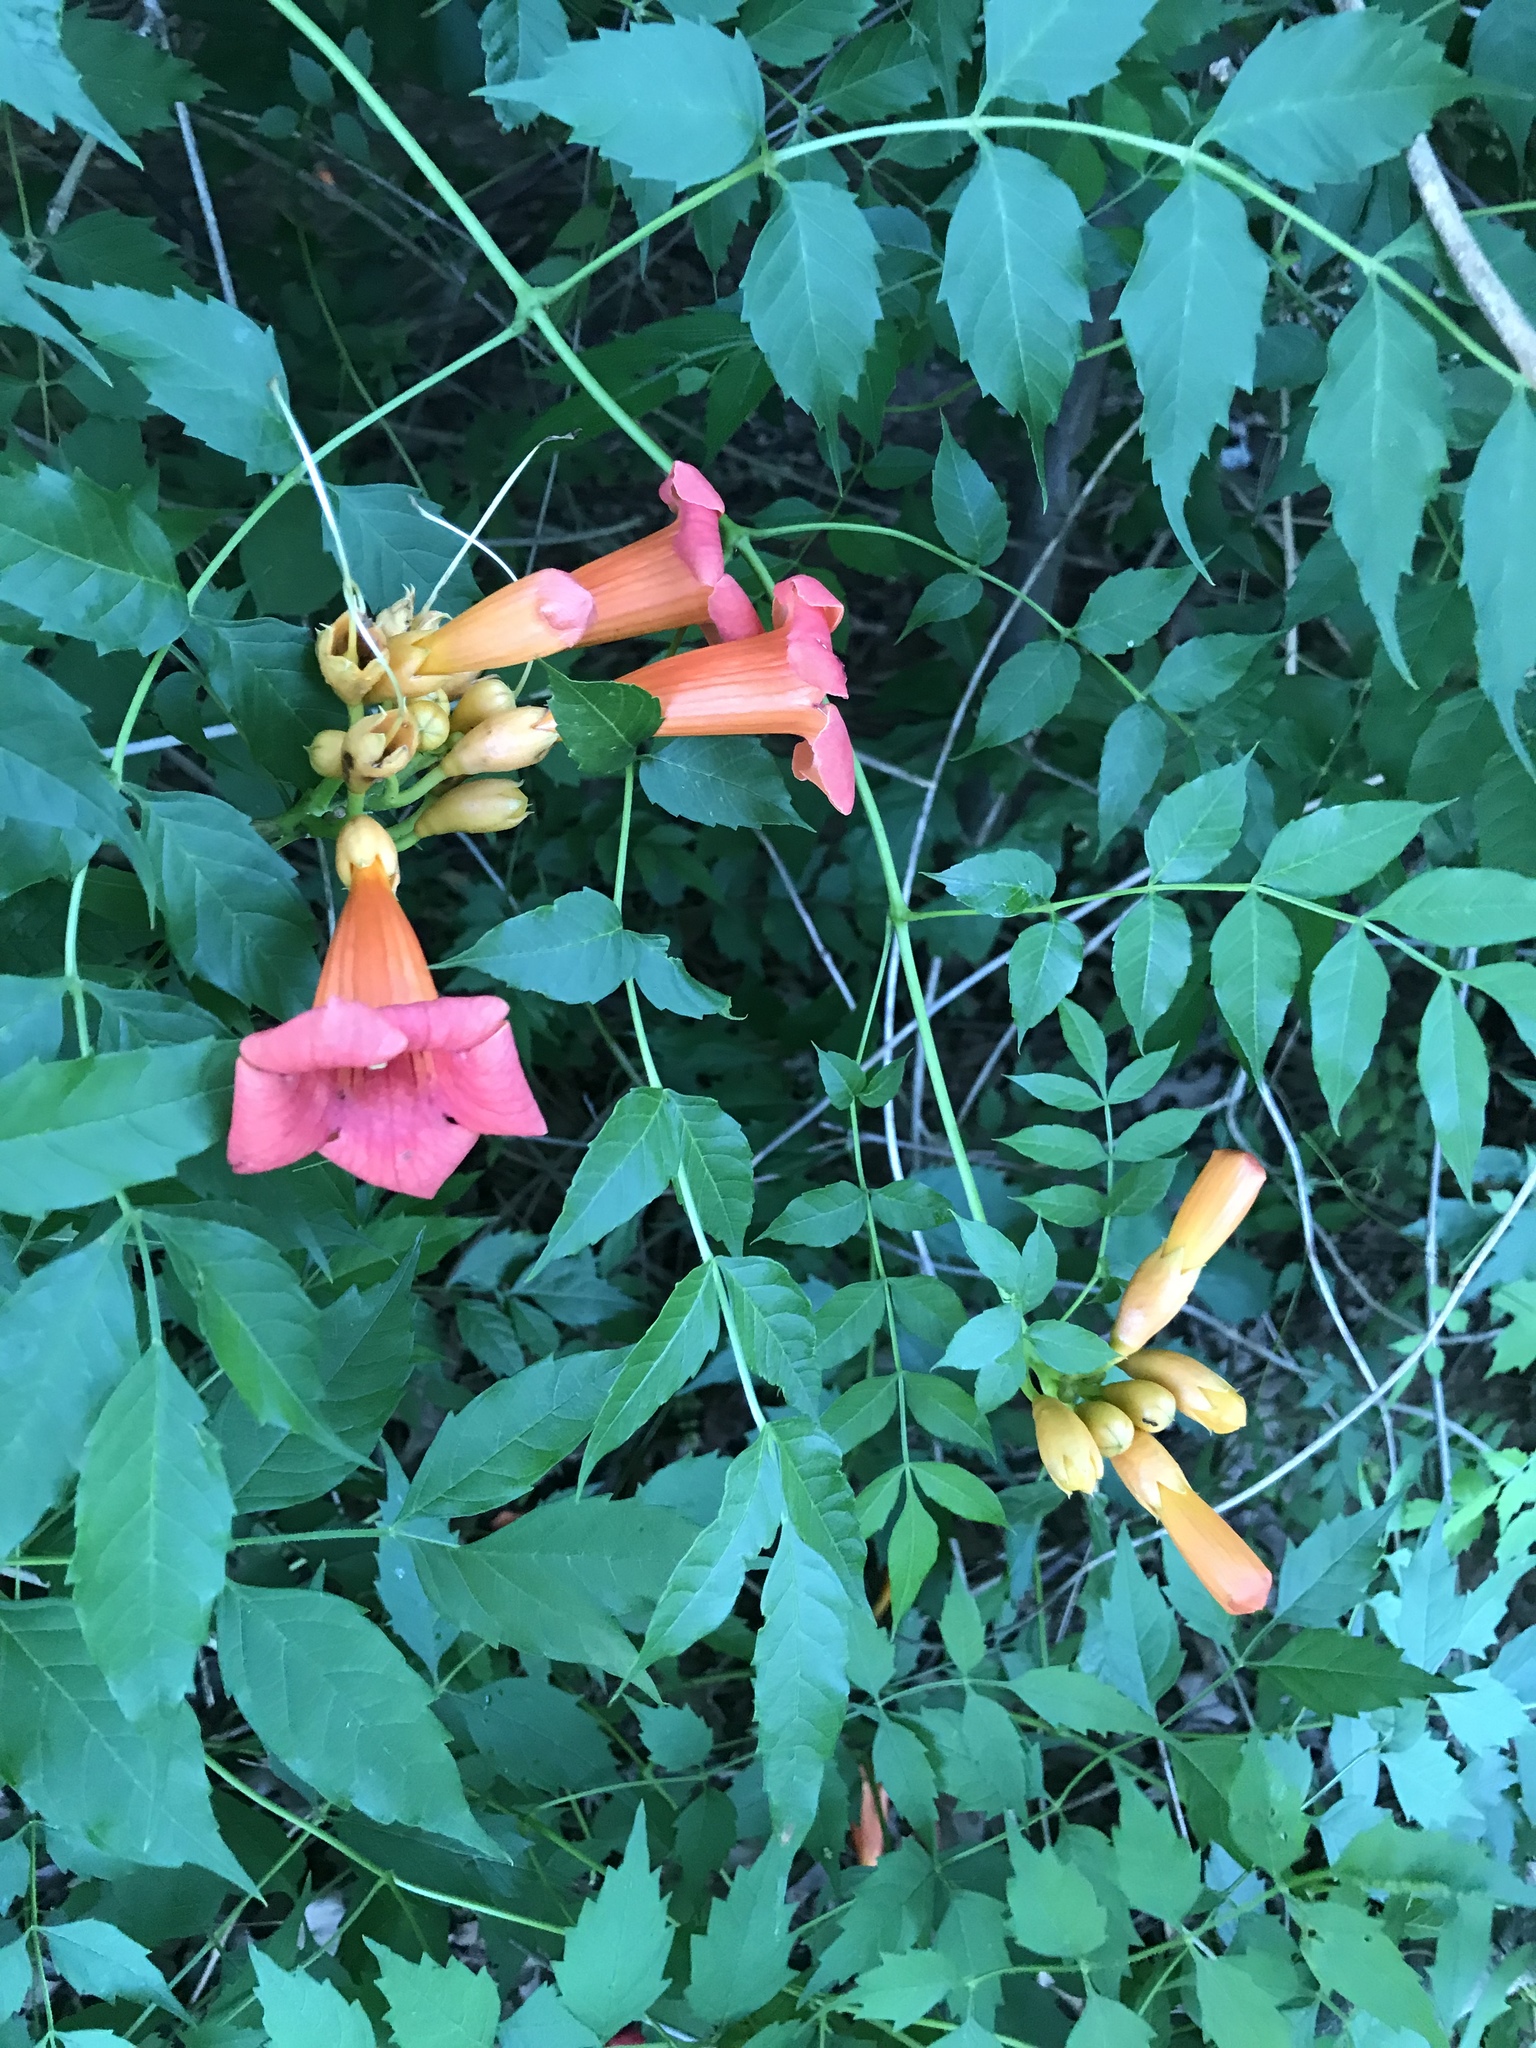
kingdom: Plantae
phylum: Tracheophyta
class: Magnoliopsida
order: Lamiales
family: Bignoniaceae
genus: Campsis
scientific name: Campsis radicans
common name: Trumpet-creeper
